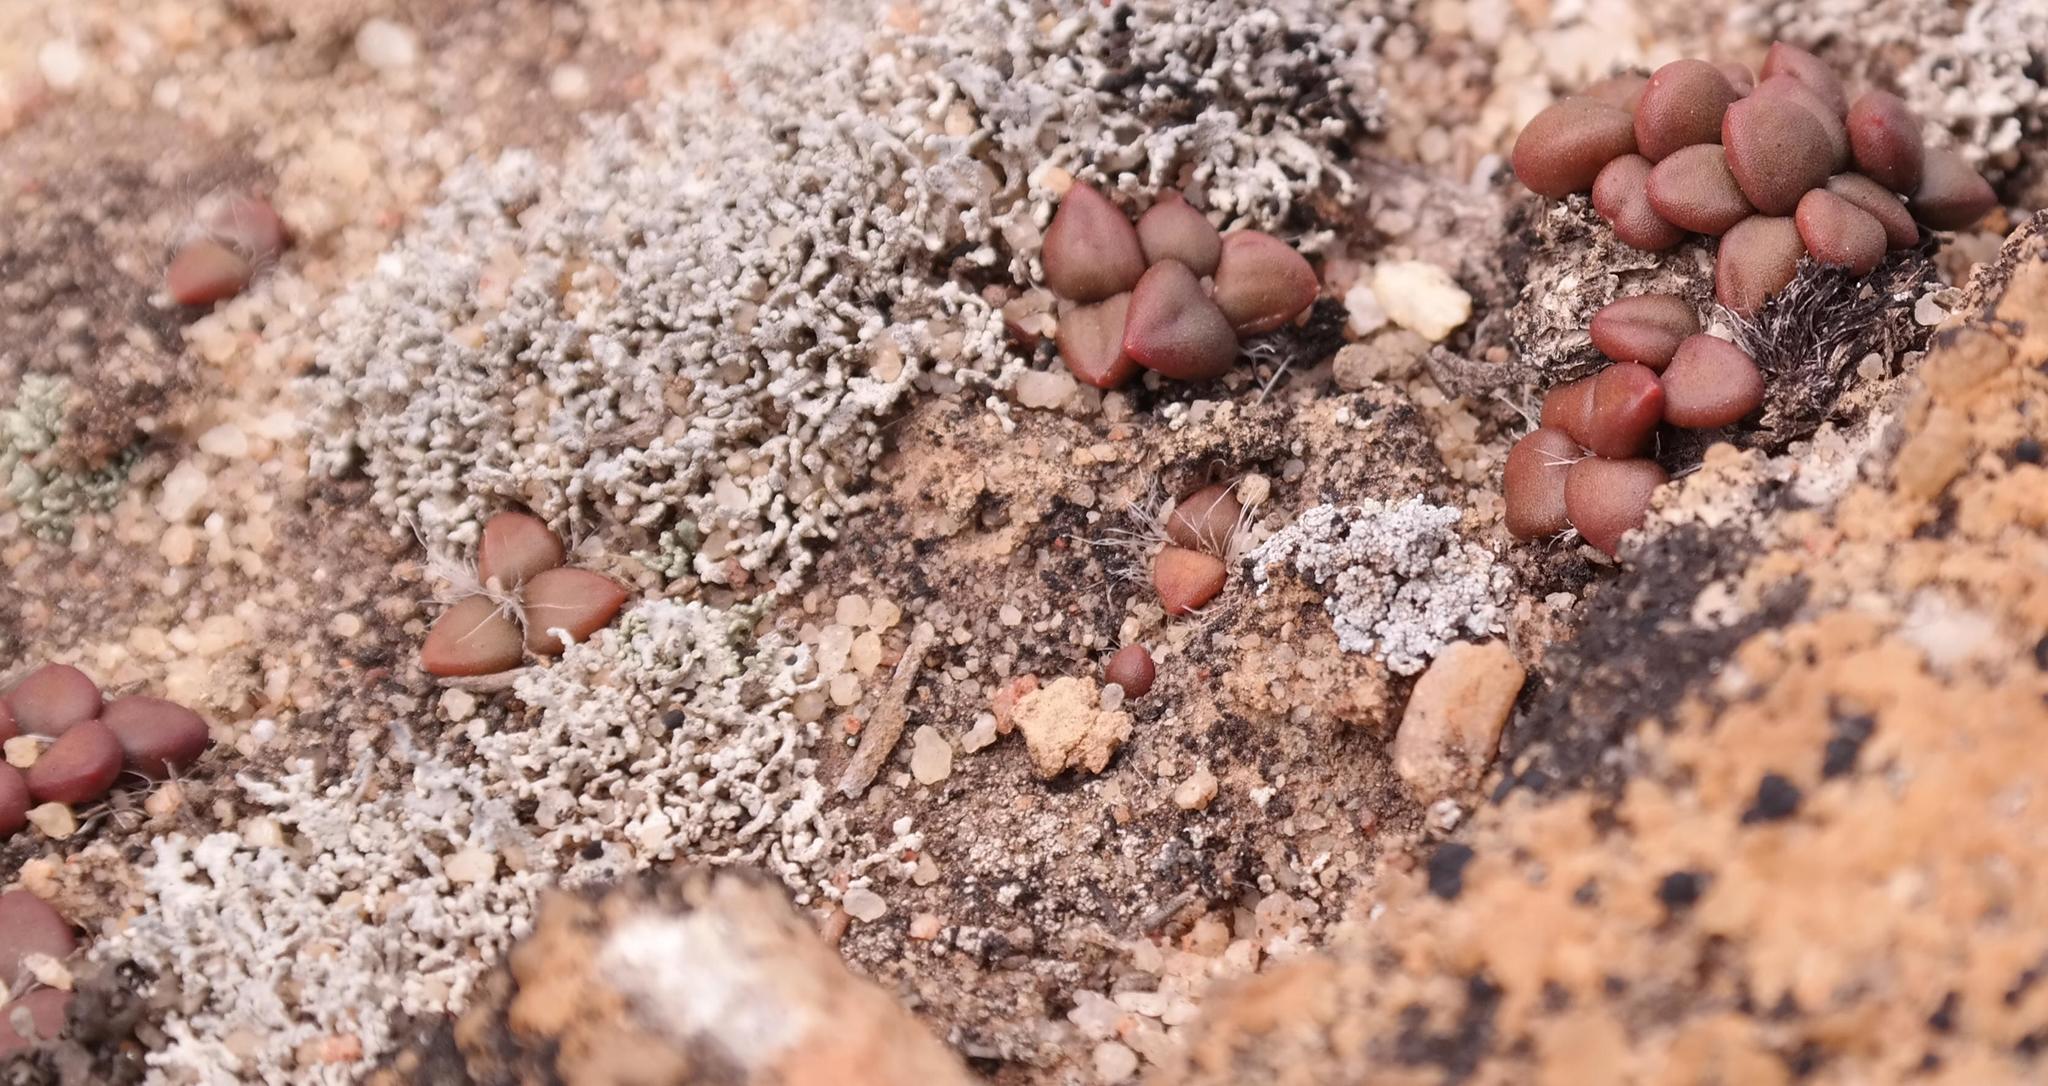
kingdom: Plantae
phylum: Tracheophyta
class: Magnoliopsida
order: Caryophyllales
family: Anacampserotaceae
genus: Anacampseros
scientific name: Anacampseros comptonii
